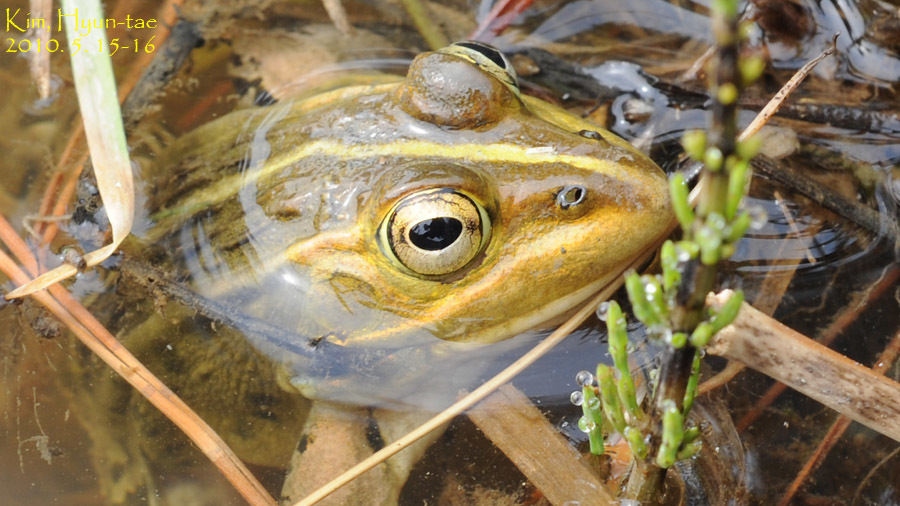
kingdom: Animalia
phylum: Chordata
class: Amphibia
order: Anura
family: Ranidae
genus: Pelophylax
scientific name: Pelophylax nigromaculatus
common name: Black-spotted pond frog
